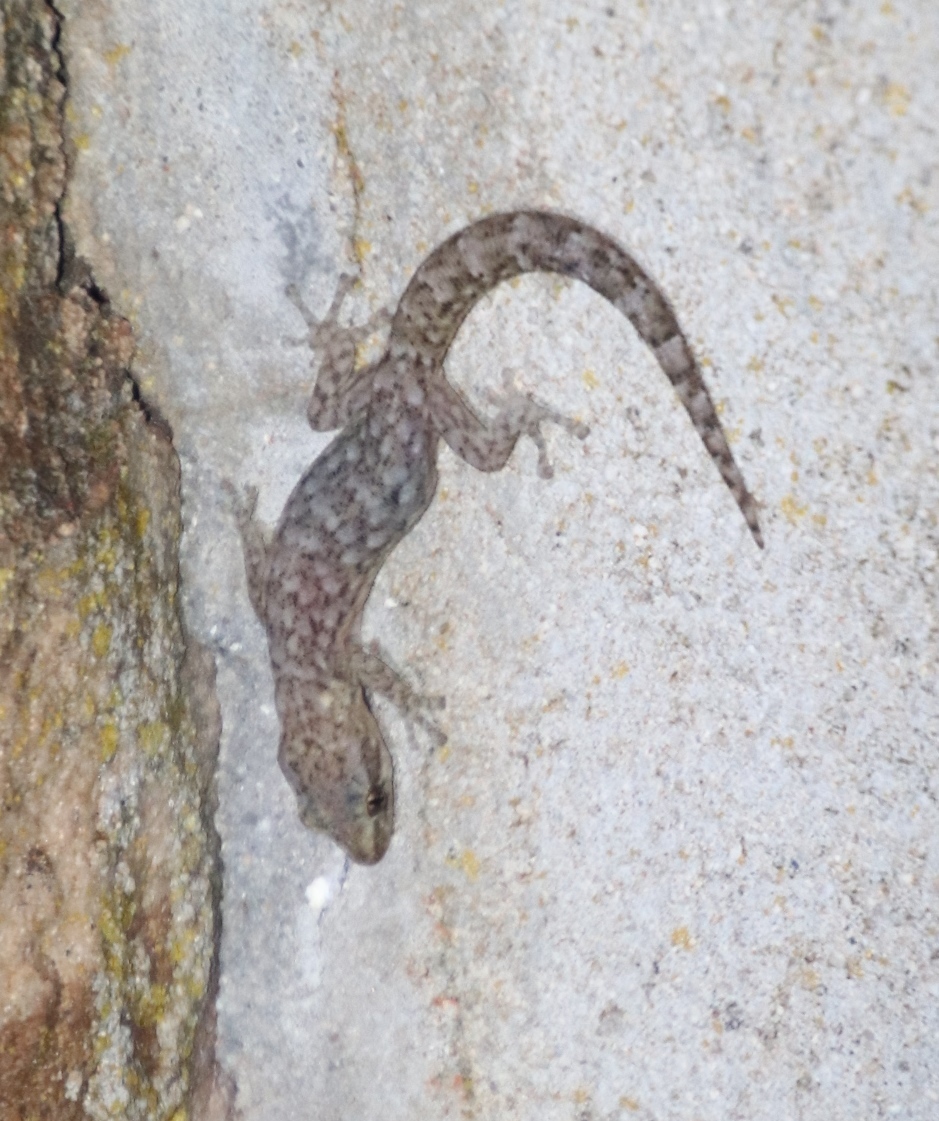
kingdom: Animalia
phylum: Chordata
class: Squamata
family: Gekkonidae
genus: Afrogecko
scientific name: Afrogecko porphyreus
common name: Marbled leaf-toed gecko
